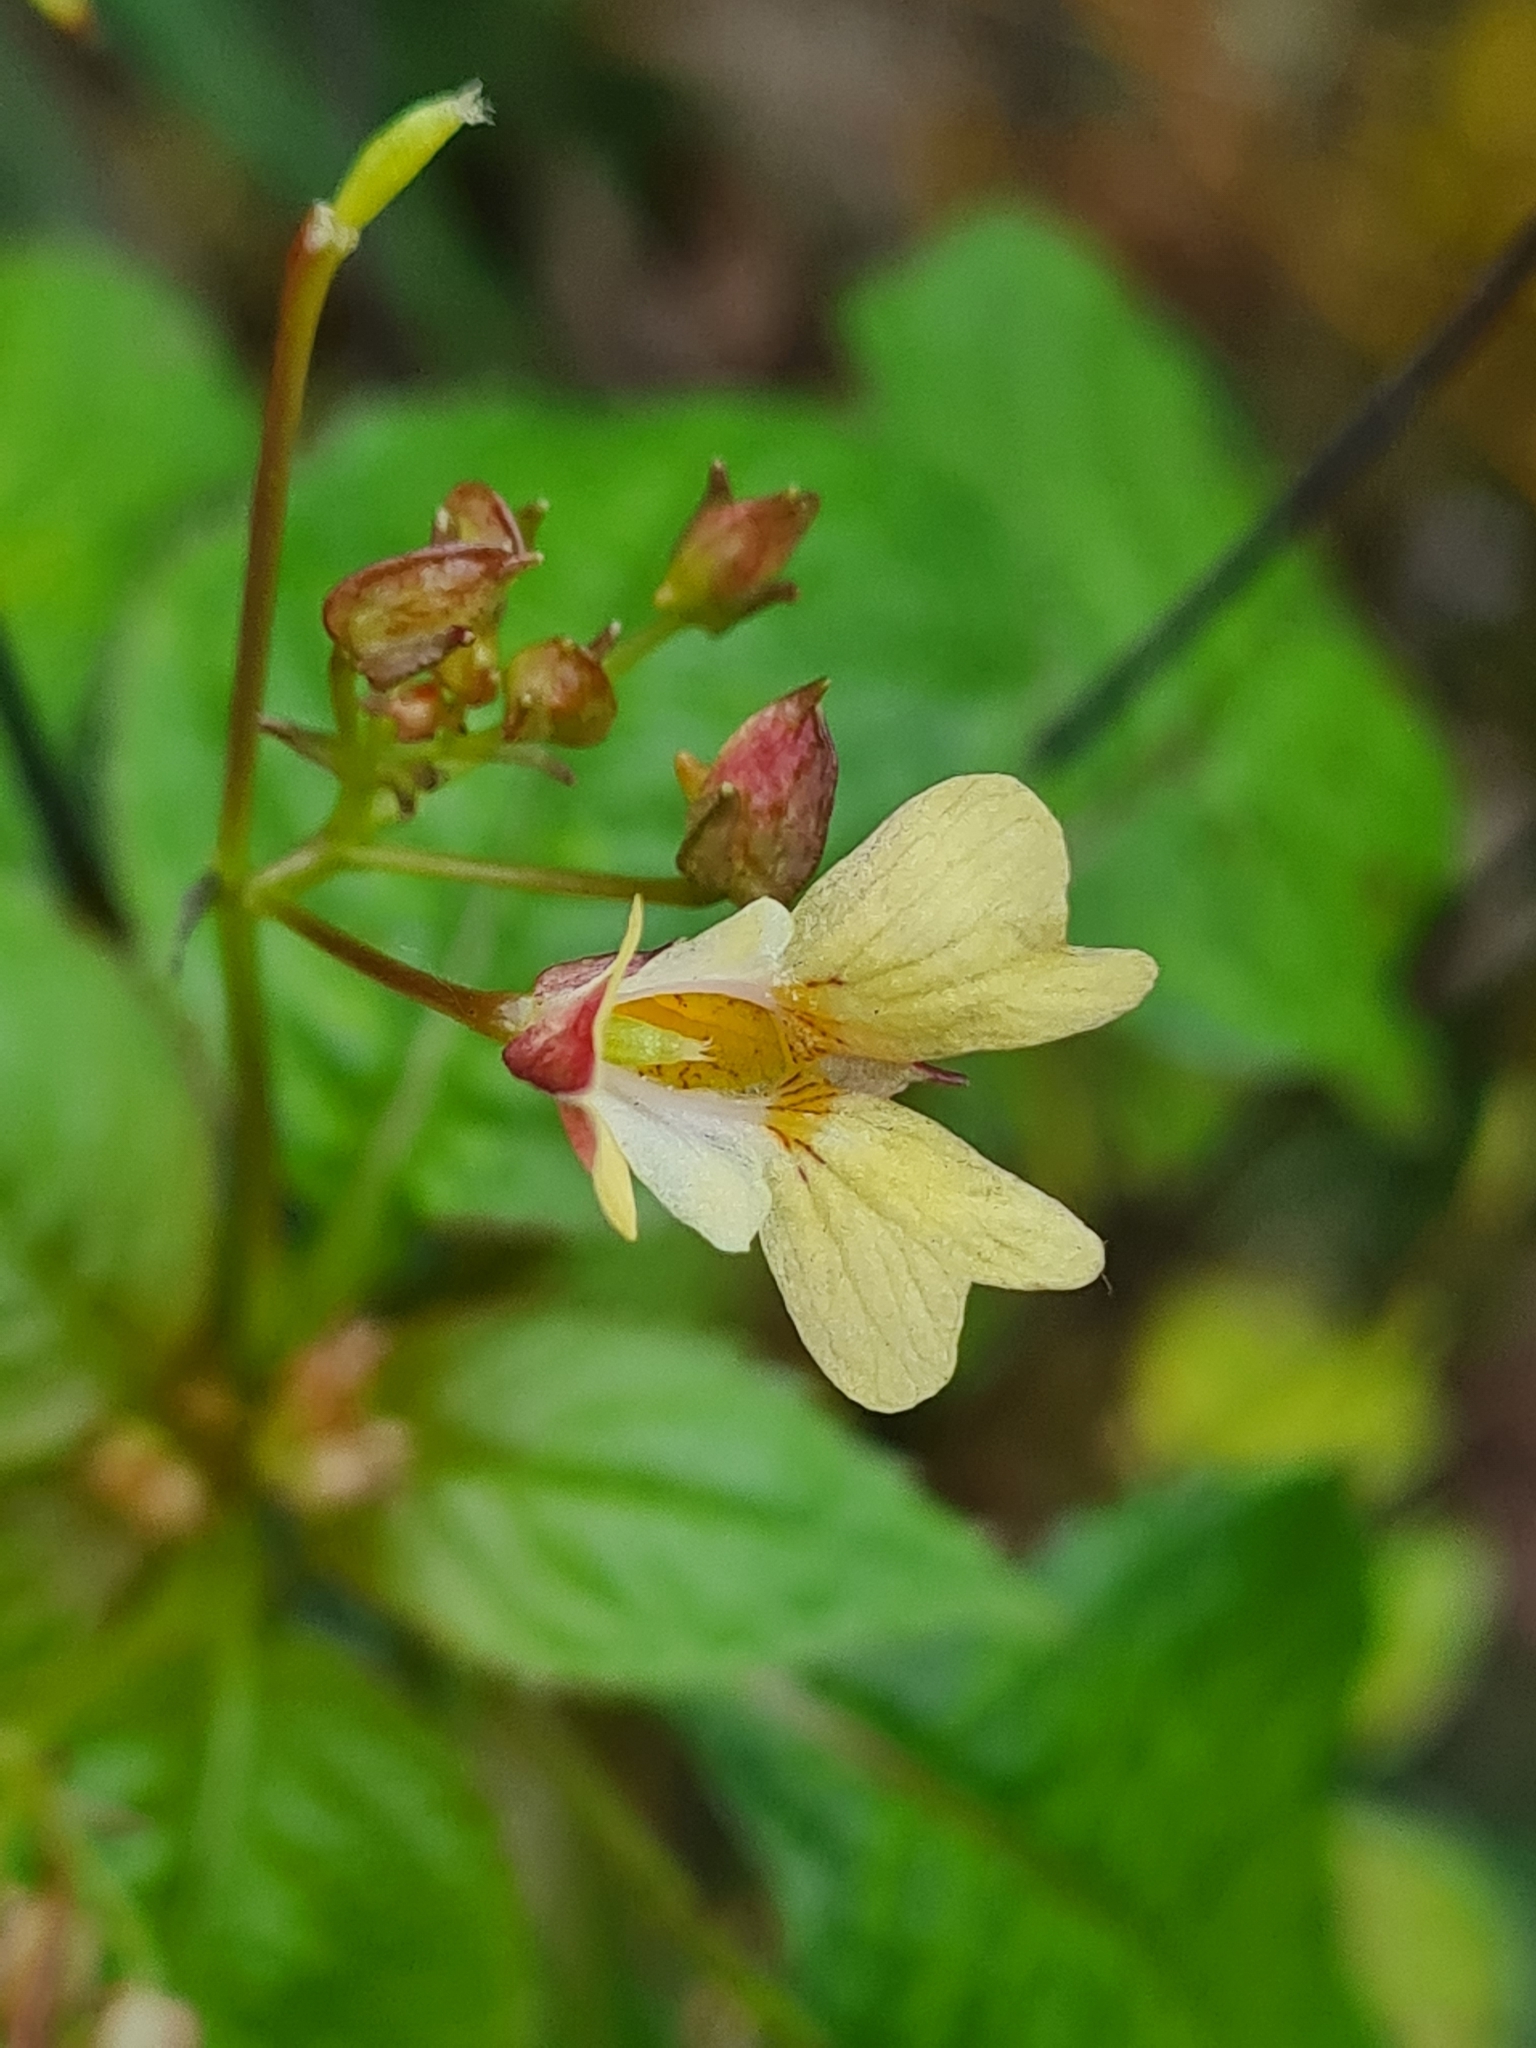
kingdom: Plantae
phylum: Tracheophyta
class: Magnoliopsida
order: Ericales
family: Balsaminaceae
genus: Impatiens
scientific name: Impatiens parviflora
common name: Small balsam
